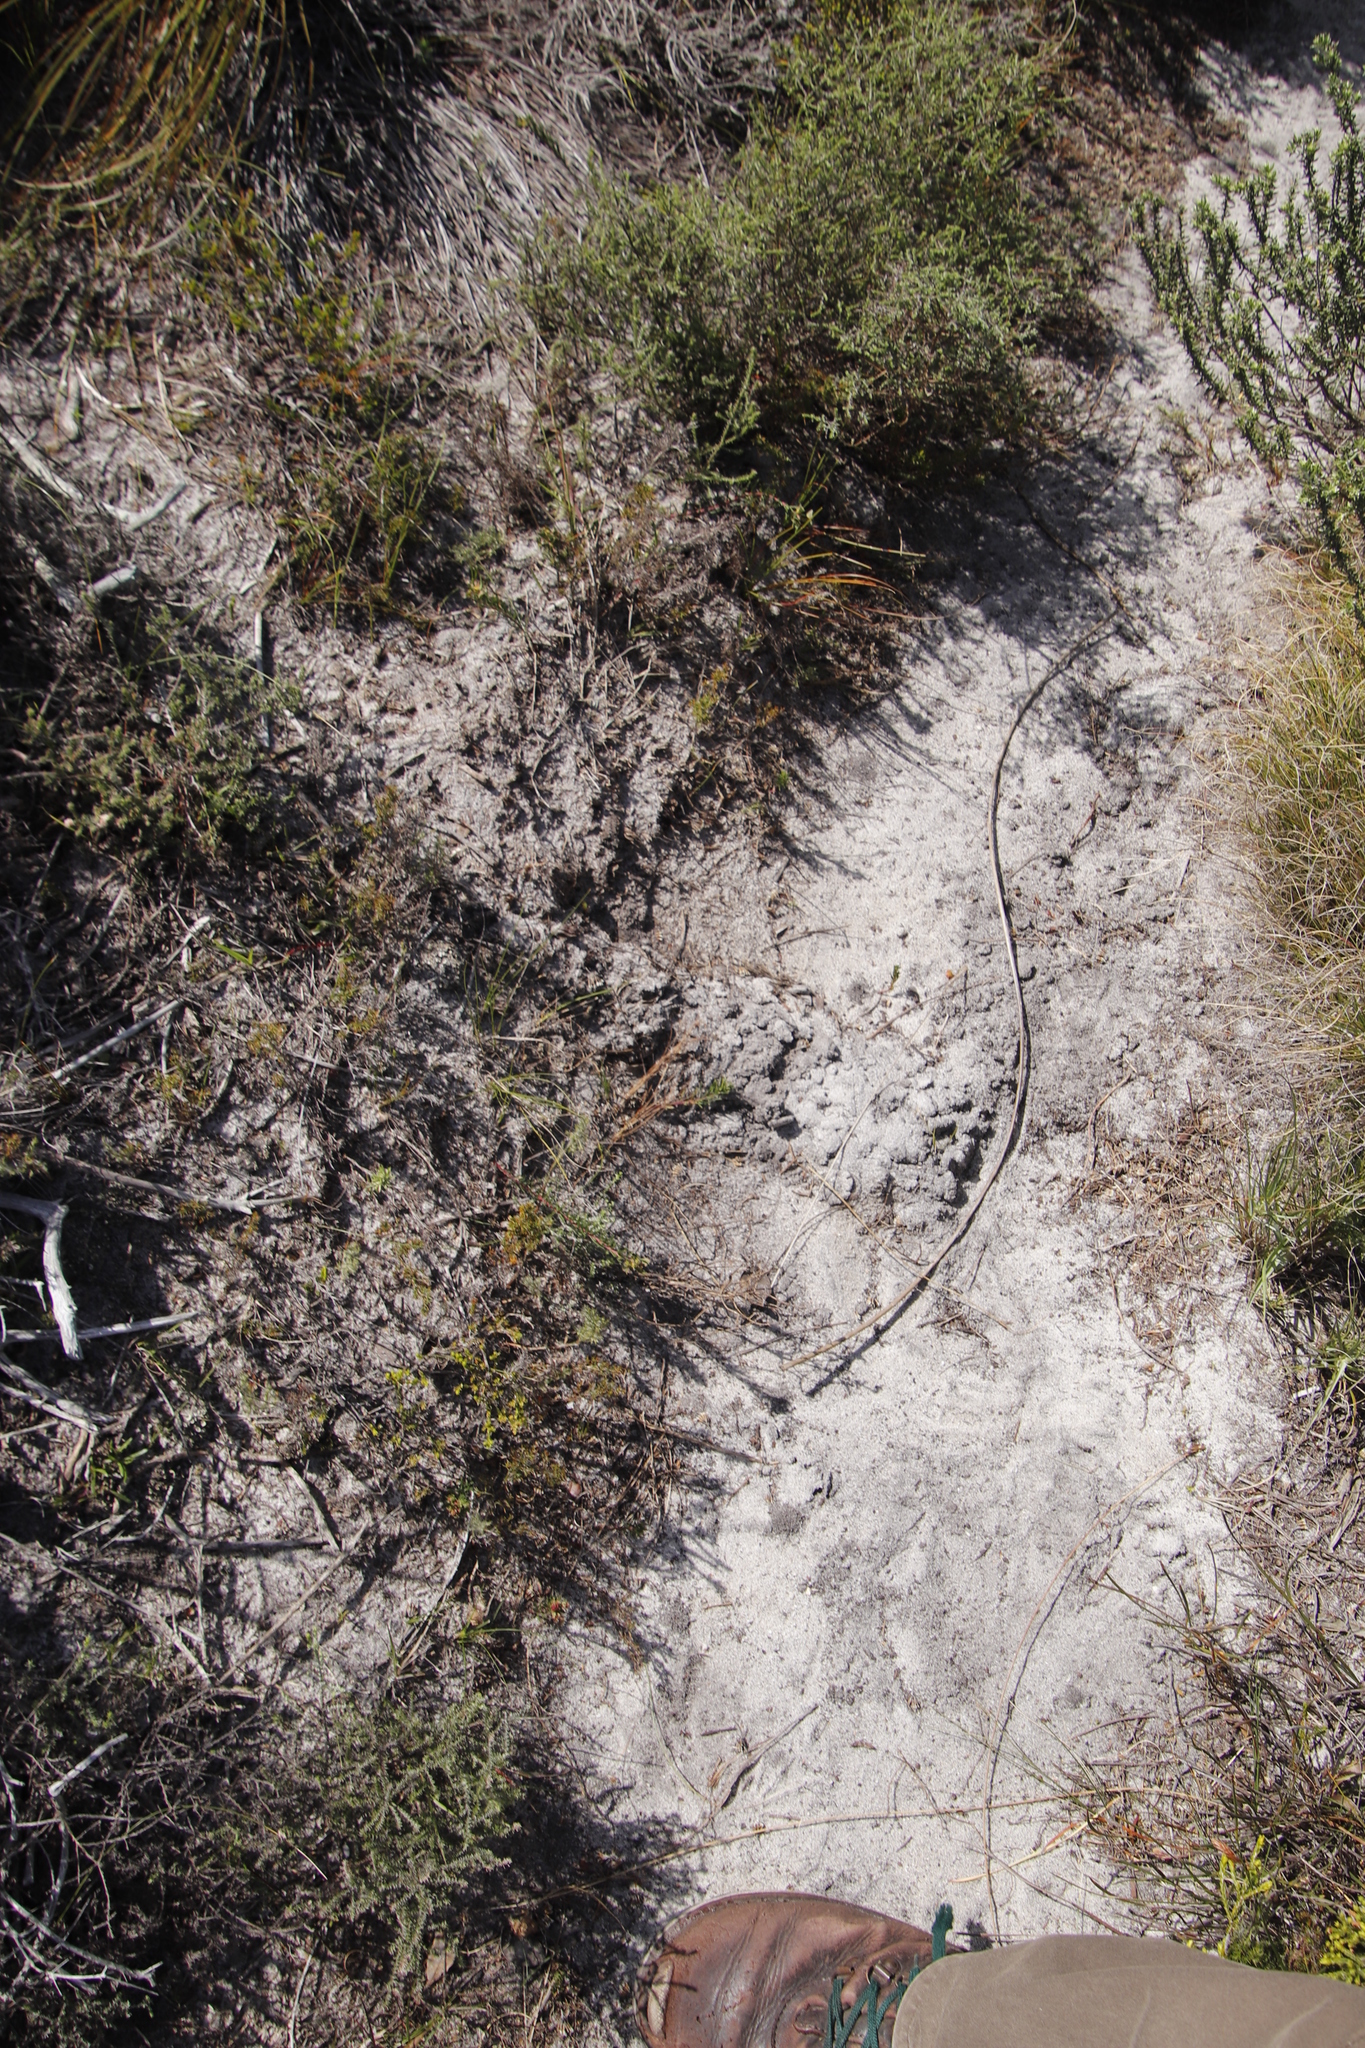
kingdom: Animalia
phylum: Chordata
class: Mammalia
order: Afrosoricida
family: Chrysochloridae
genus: Chrysochloris
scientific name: Chrysochloris asiatica
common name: Cape golden mole
